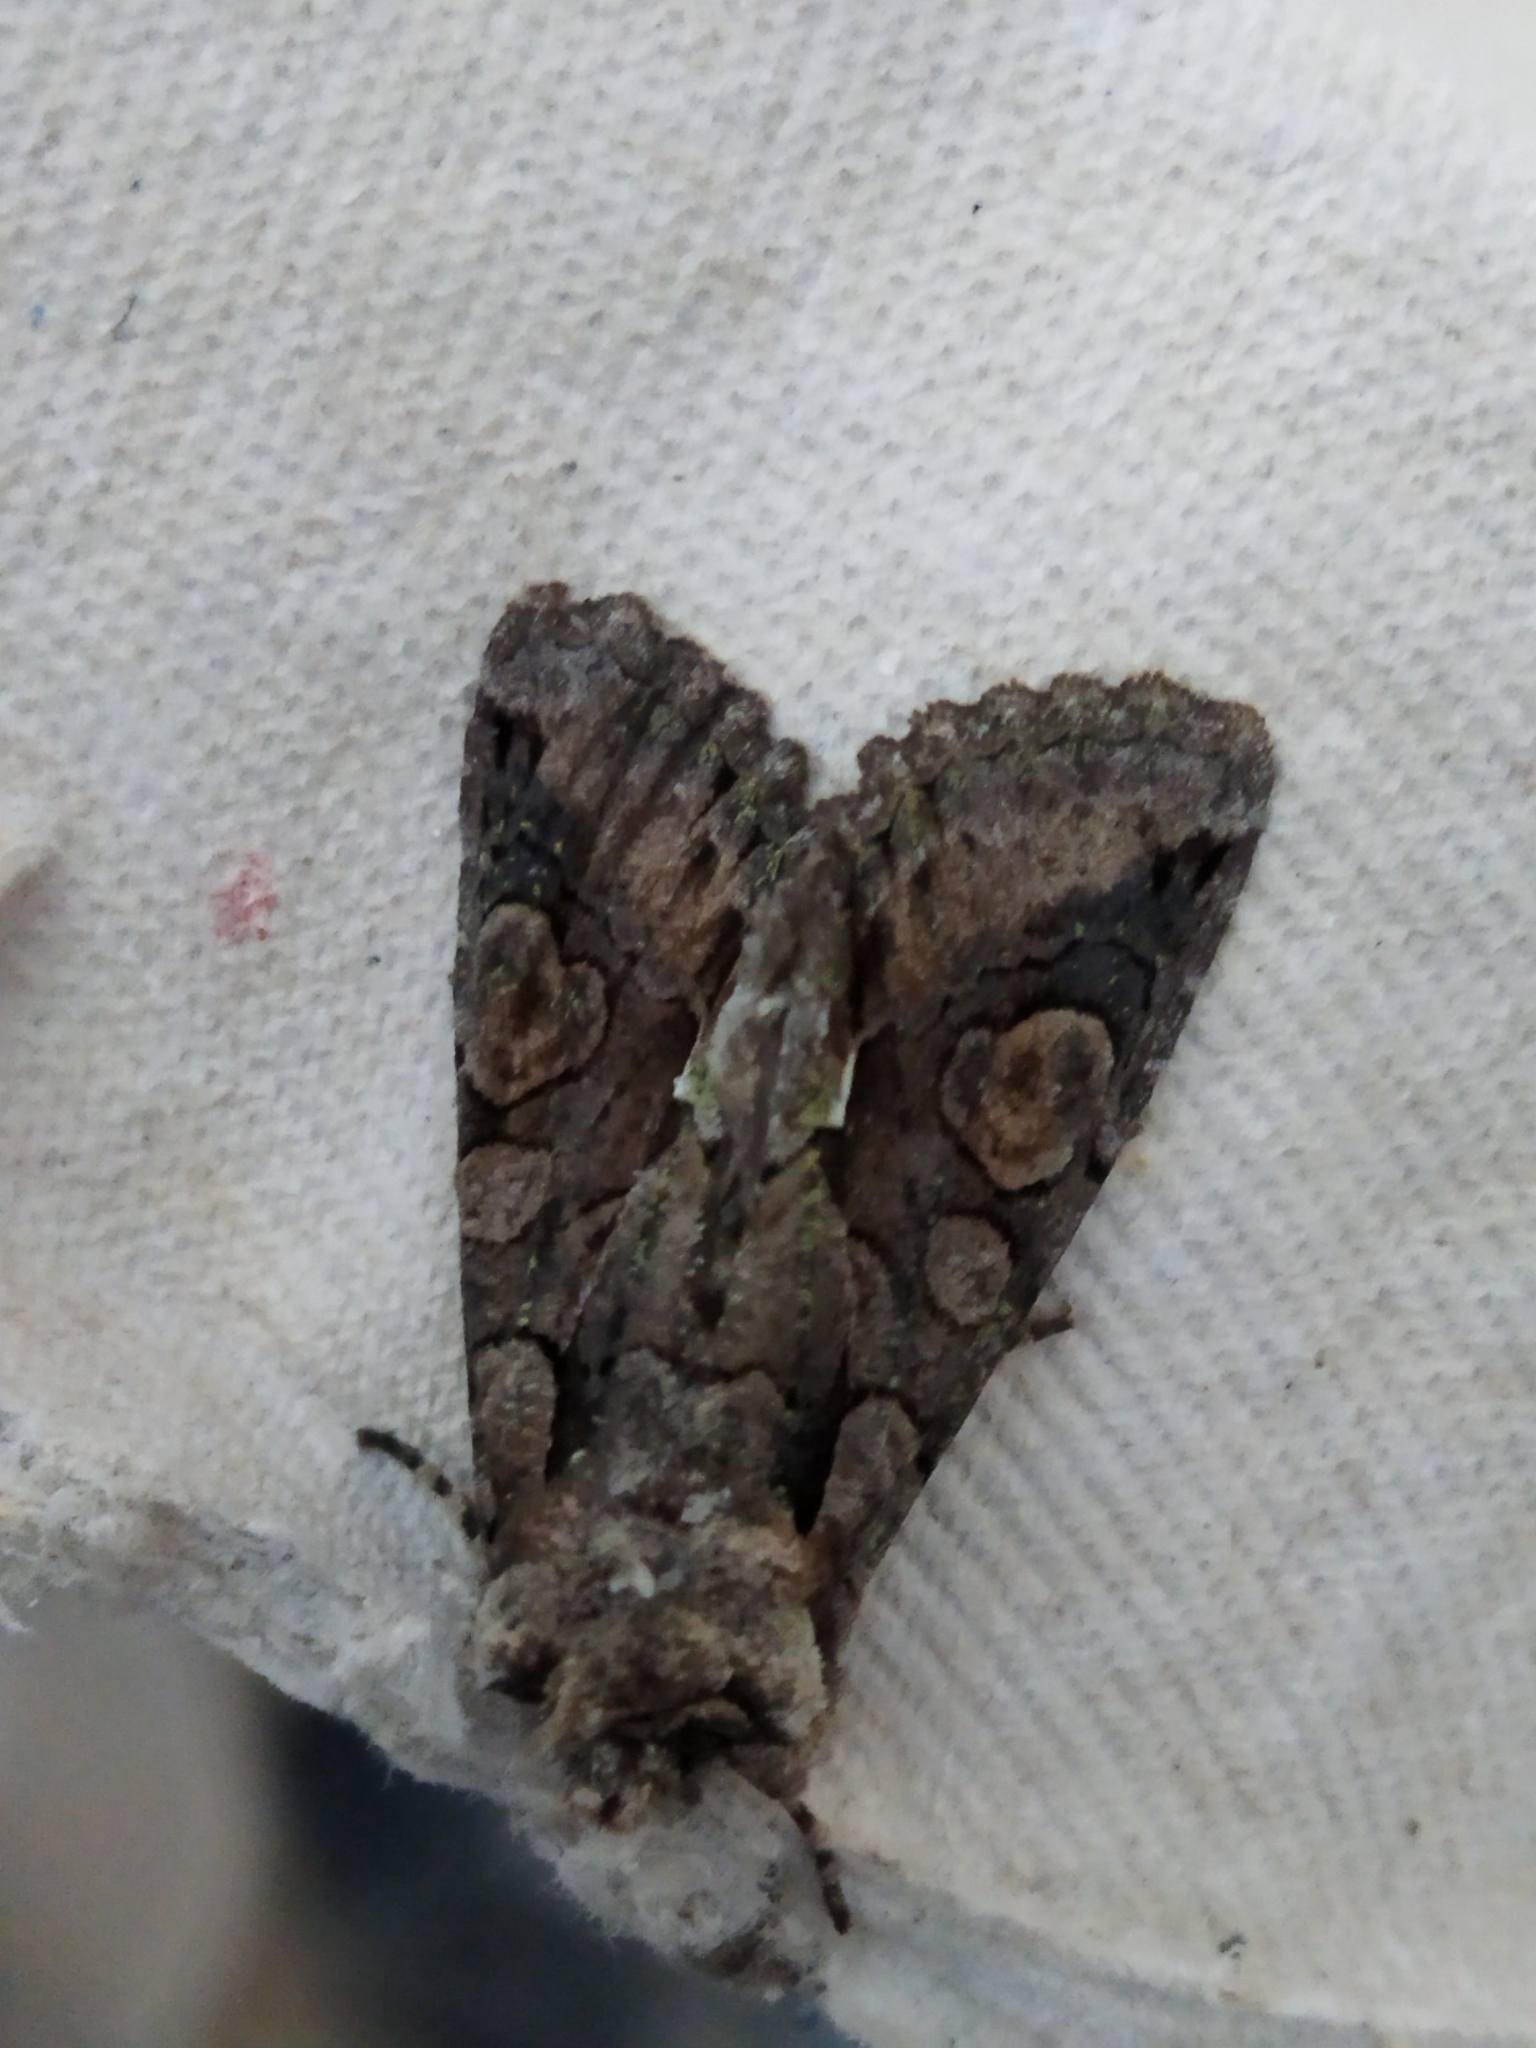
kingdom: Animalia
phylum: Arthropoda
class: Insecta
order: Lepidoptera
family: Noctuidae
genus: Allophyes
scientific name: Allophyes oxyacanthae
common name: Green-brindled crescent
